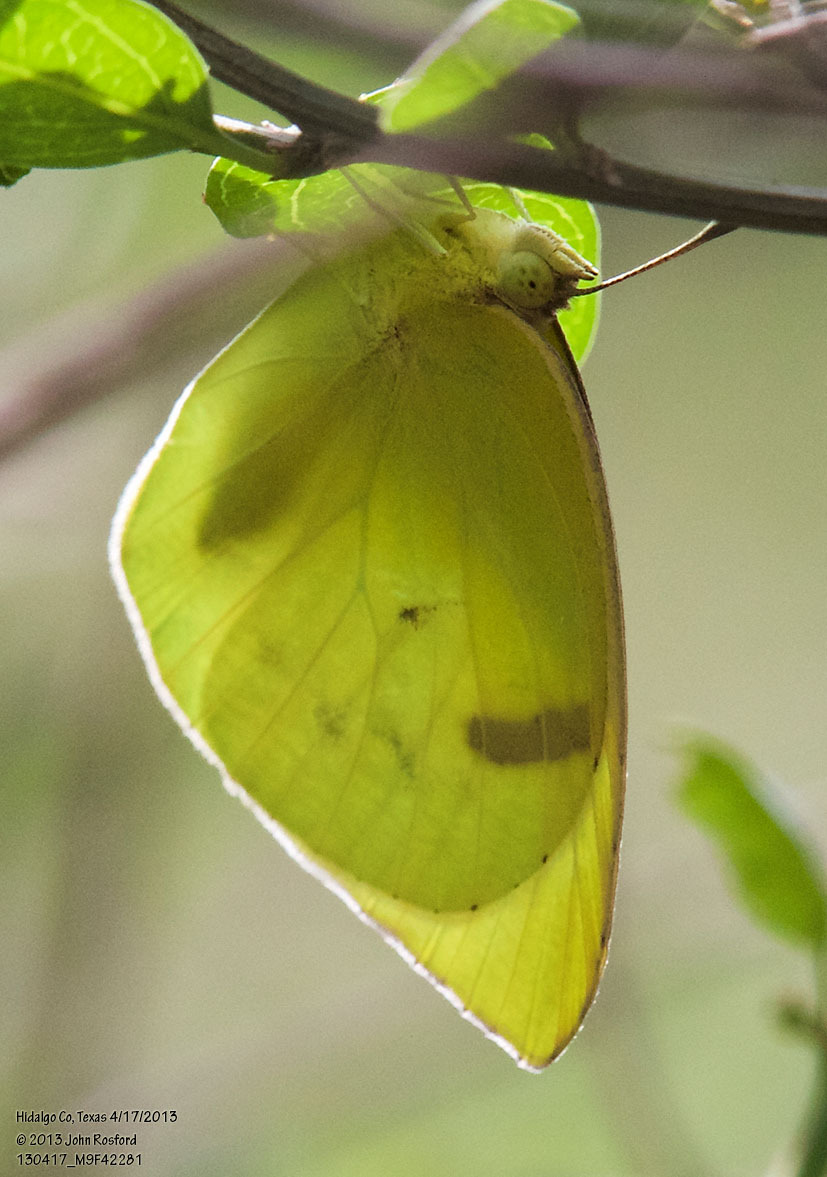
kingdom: Animalia
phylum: Arthropoda
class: Insecta
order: Lepidoptera
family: Pieridae
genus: Kricogonia
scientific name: Kricogonia lyside
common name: Guayacan sulphur,
